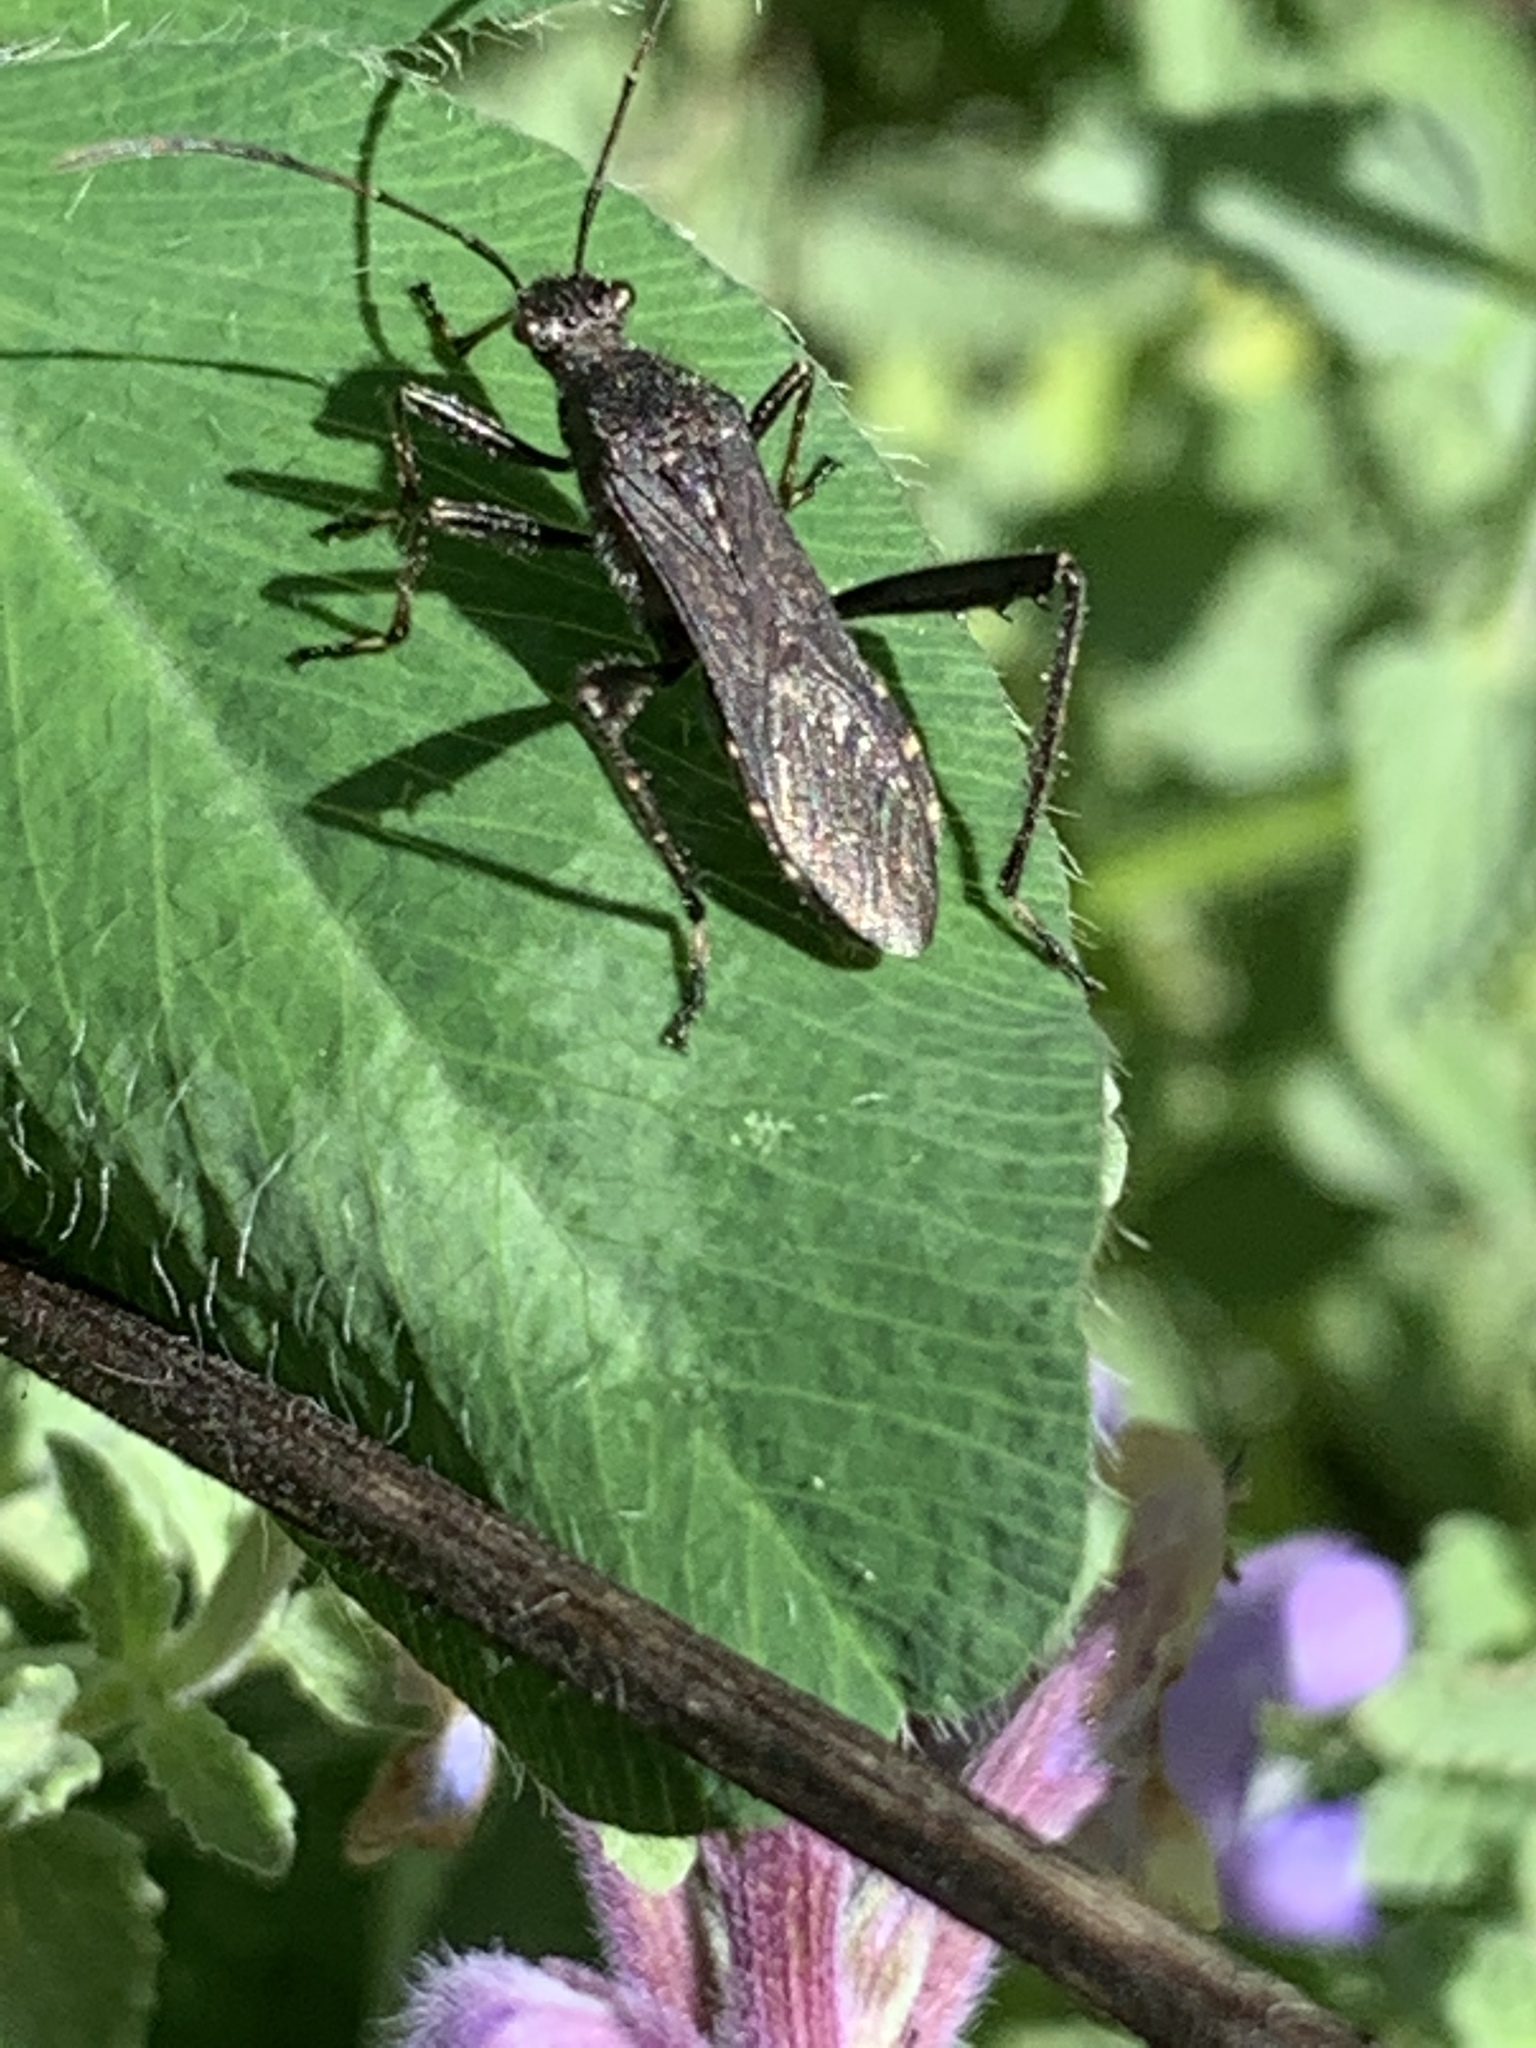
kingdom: Animalia
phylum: Arthropoda
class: Insecta
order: Hemiptera
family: Alydidae
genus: Alydus
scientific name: Alydus eurinus
